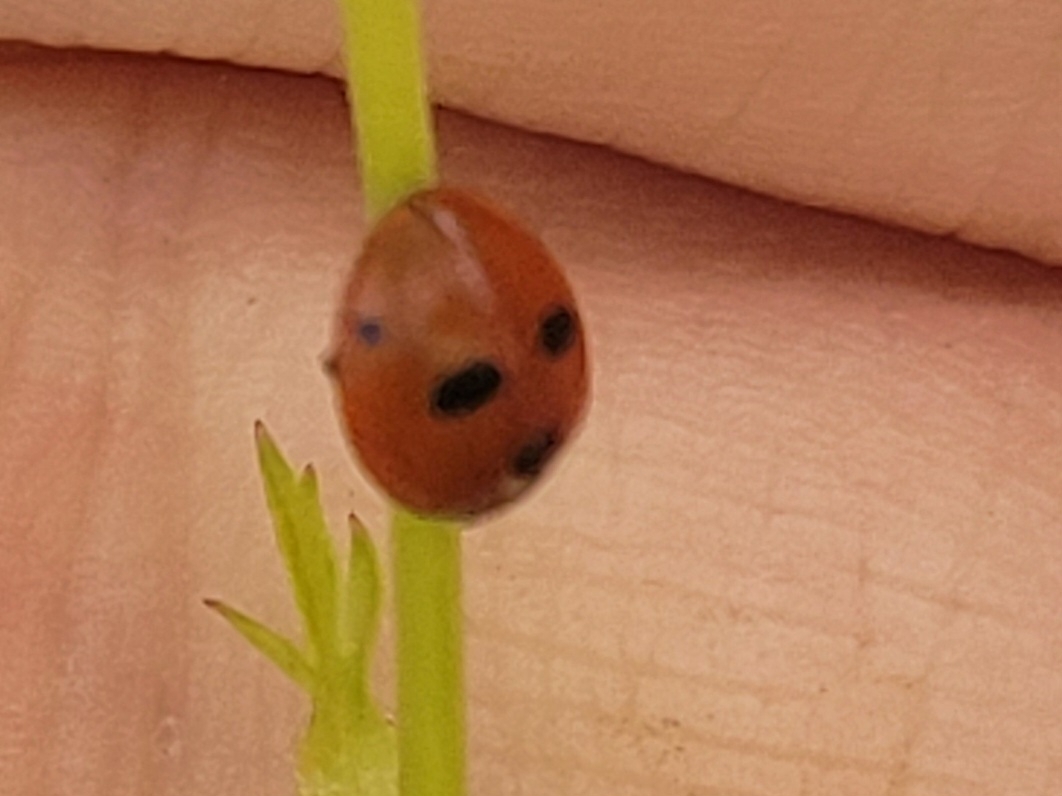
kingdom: Animalia
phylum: Arthropoda
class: Insecta
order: Coleoptera
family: Coccinellidae
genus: Coccinella
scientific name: Coccinella quinquepunctata
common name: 5-spot ladybird
